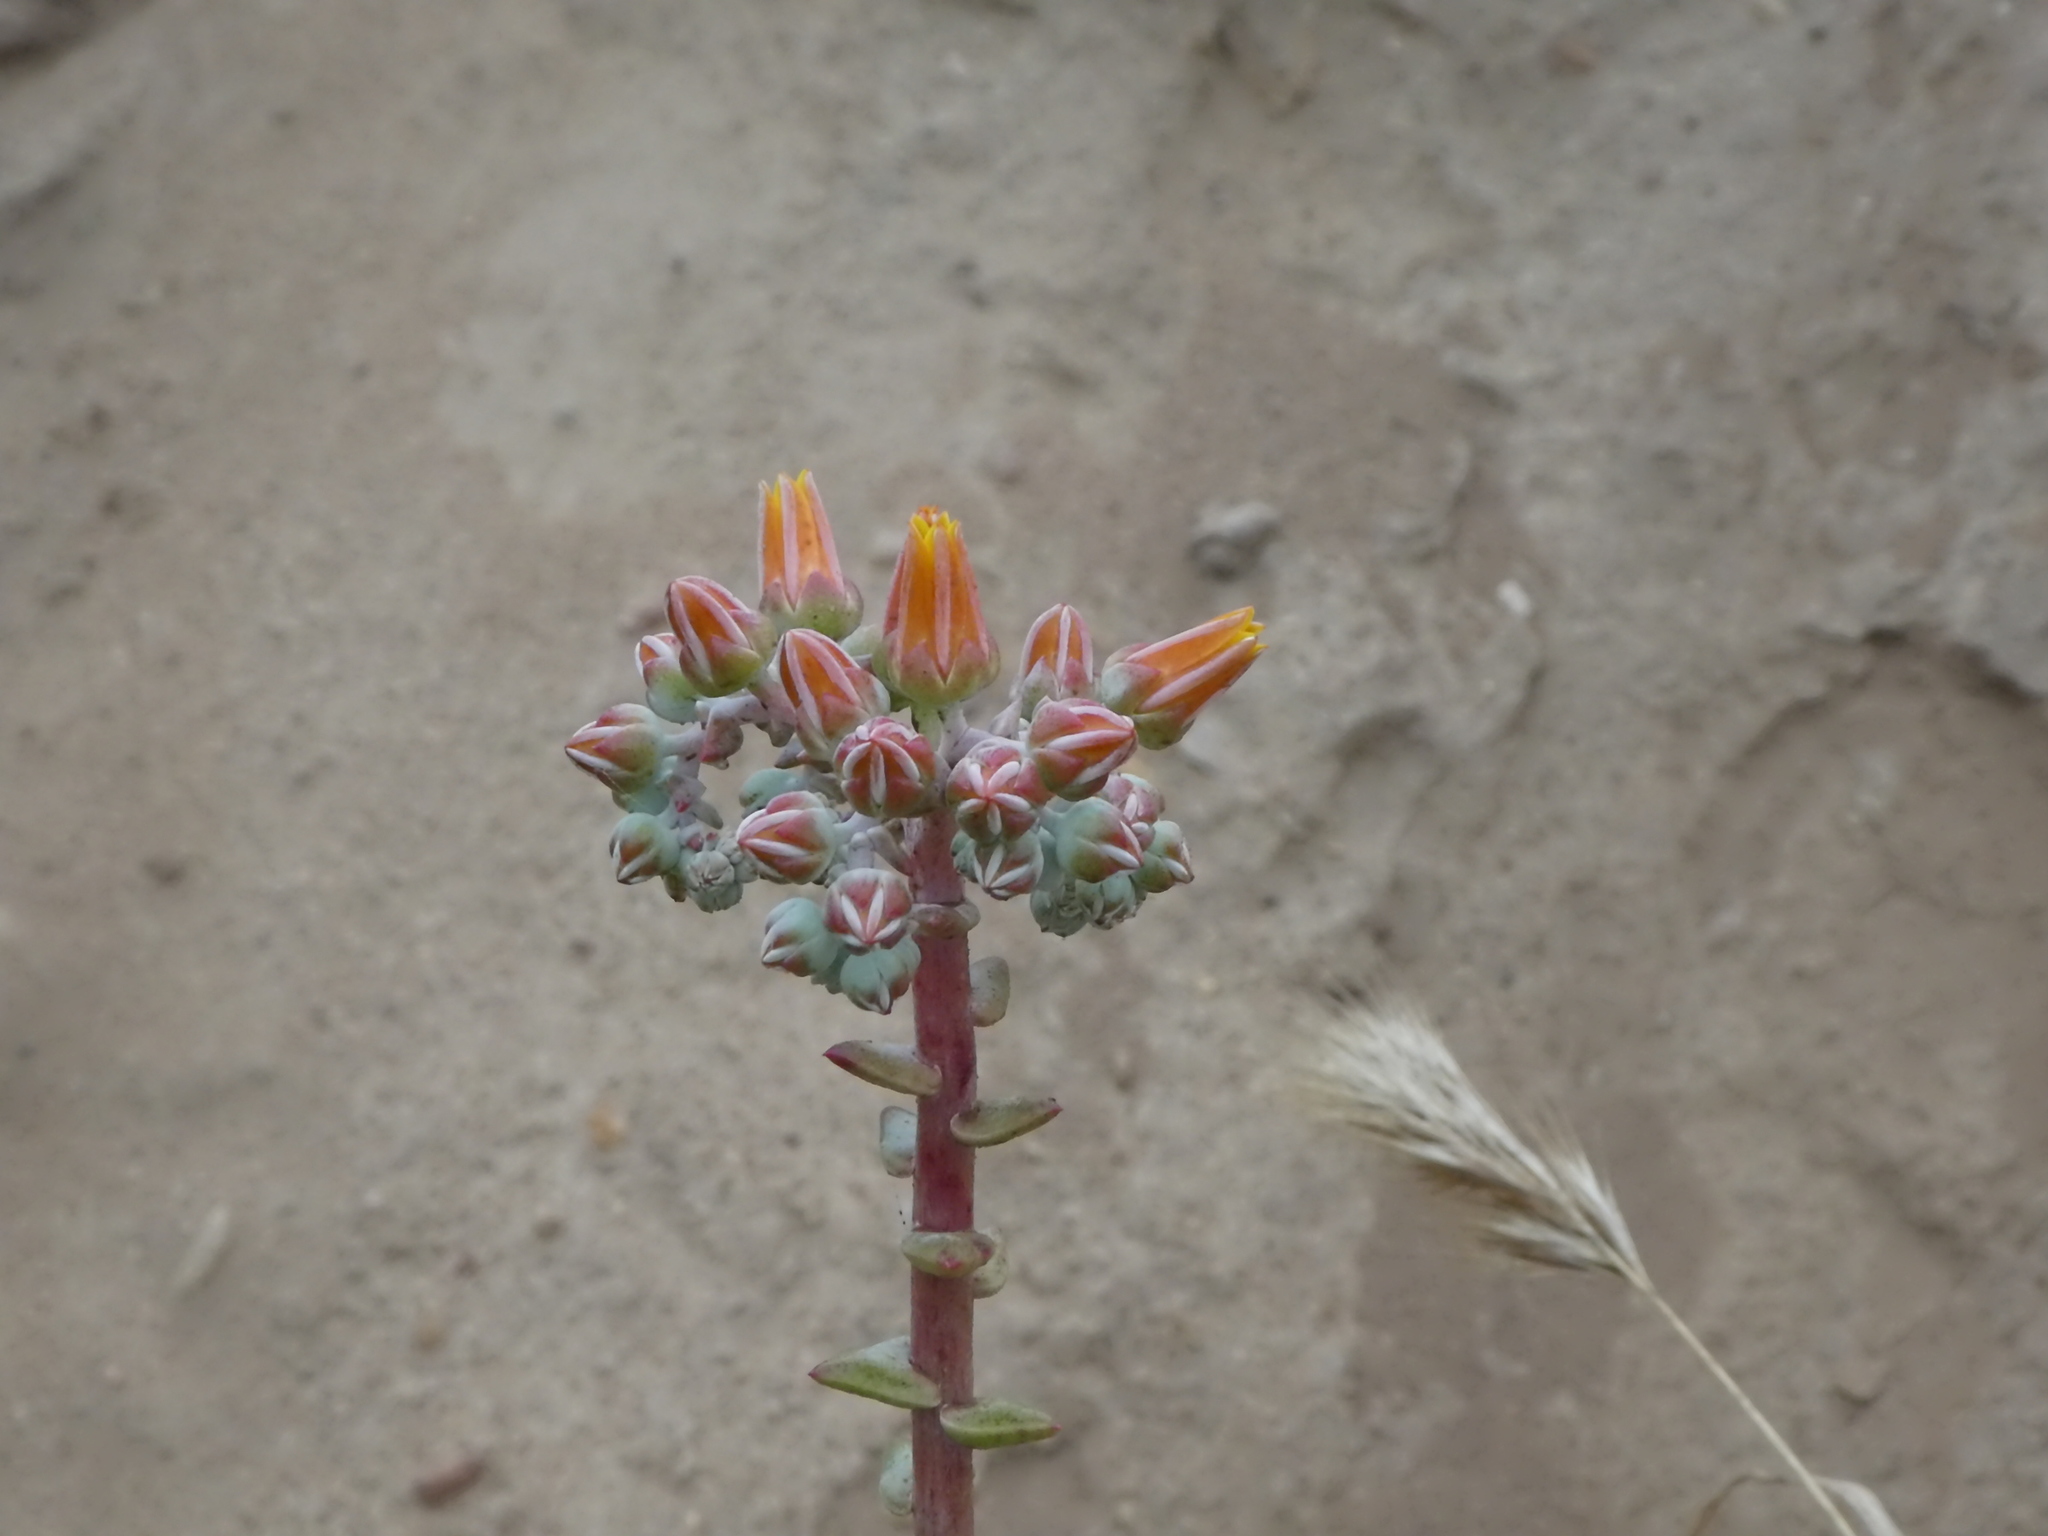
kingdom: Plantae
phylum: Tracheophyta
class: Magnoliopsida
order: Saxifragales
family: Crassulaceae
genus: Dudleya
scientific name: Dudleya caespitosa
